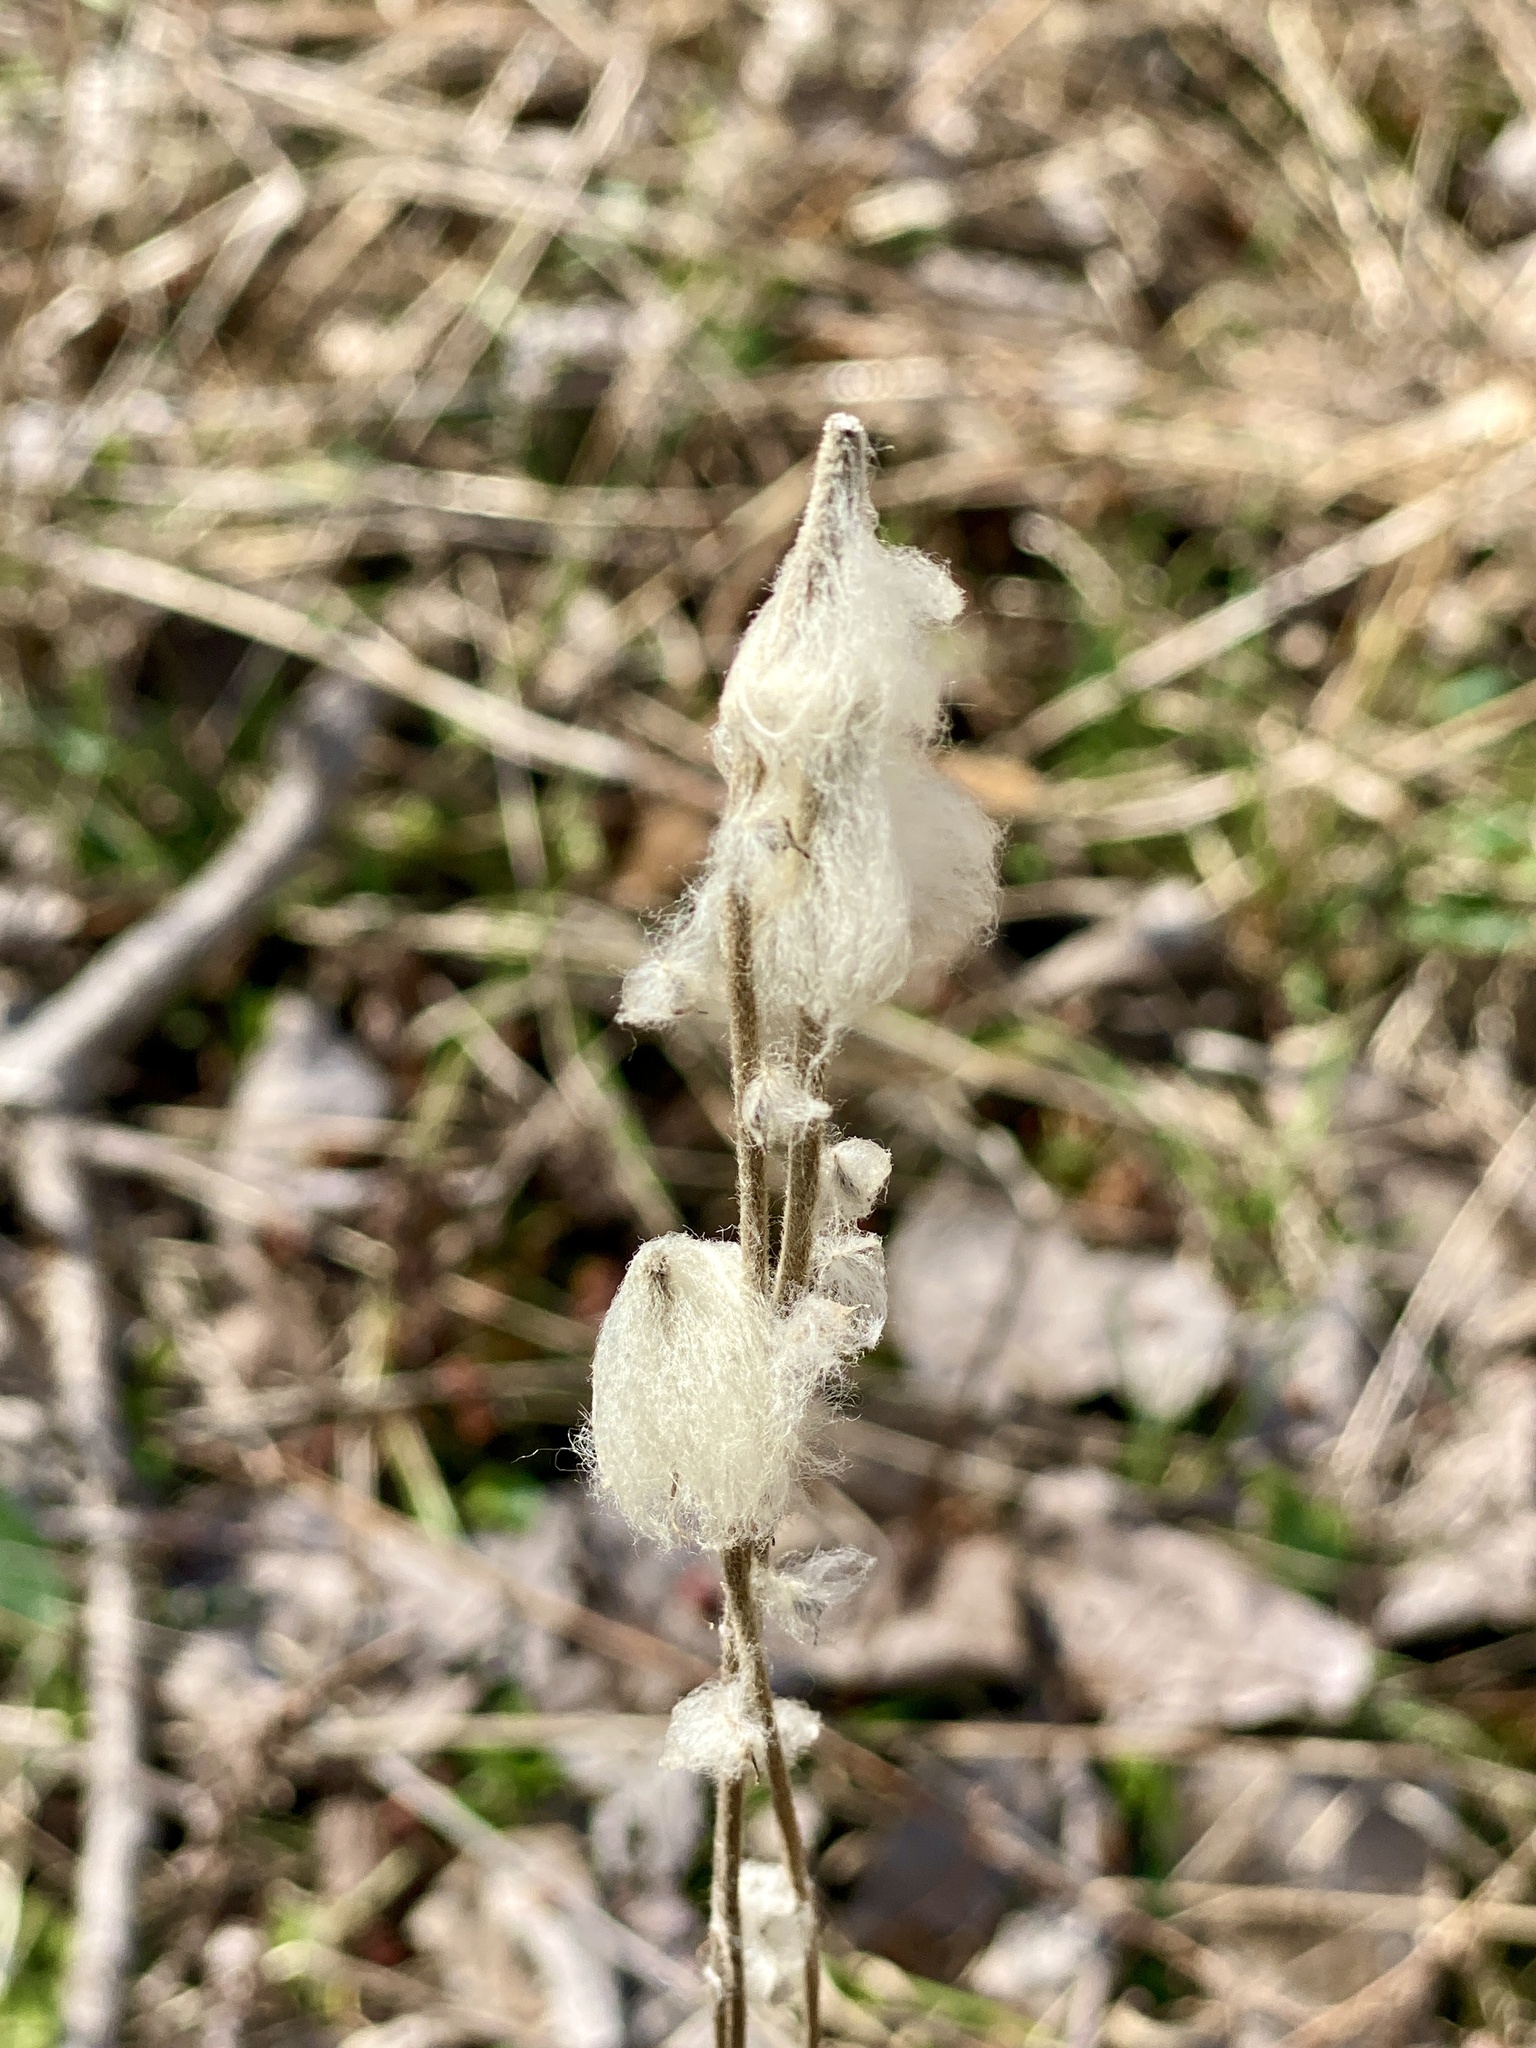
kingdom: Plantae
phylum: Tracheophyta
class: Magnoliopsida
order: Ranunculales
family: Ranunculaceae
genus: Anemone
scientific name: Anemone virginiana
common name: Tall anemone
